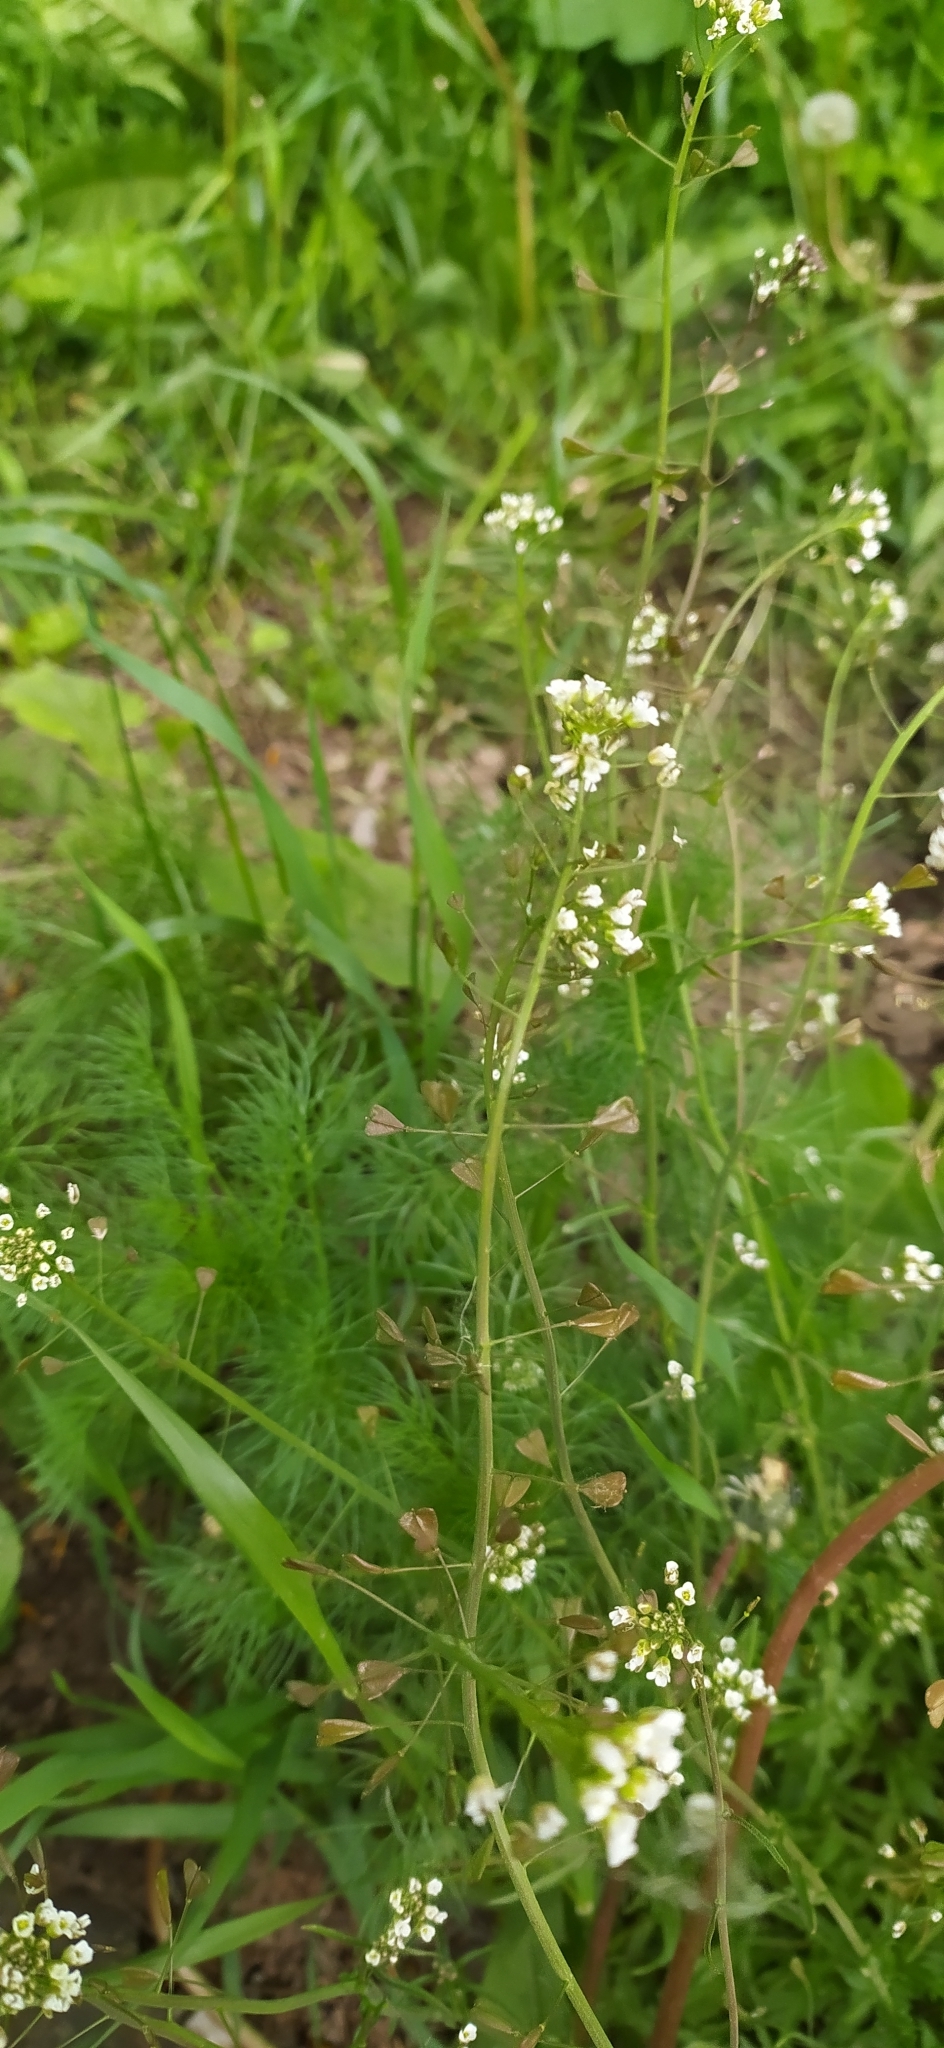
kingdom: Plantae
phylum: Tracheophyta
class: Magnoliopsida
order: Brassicales
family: Brassicaceae
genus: Capsella
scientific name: Capsella bursa-pastoris
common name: Shepherd's purse
